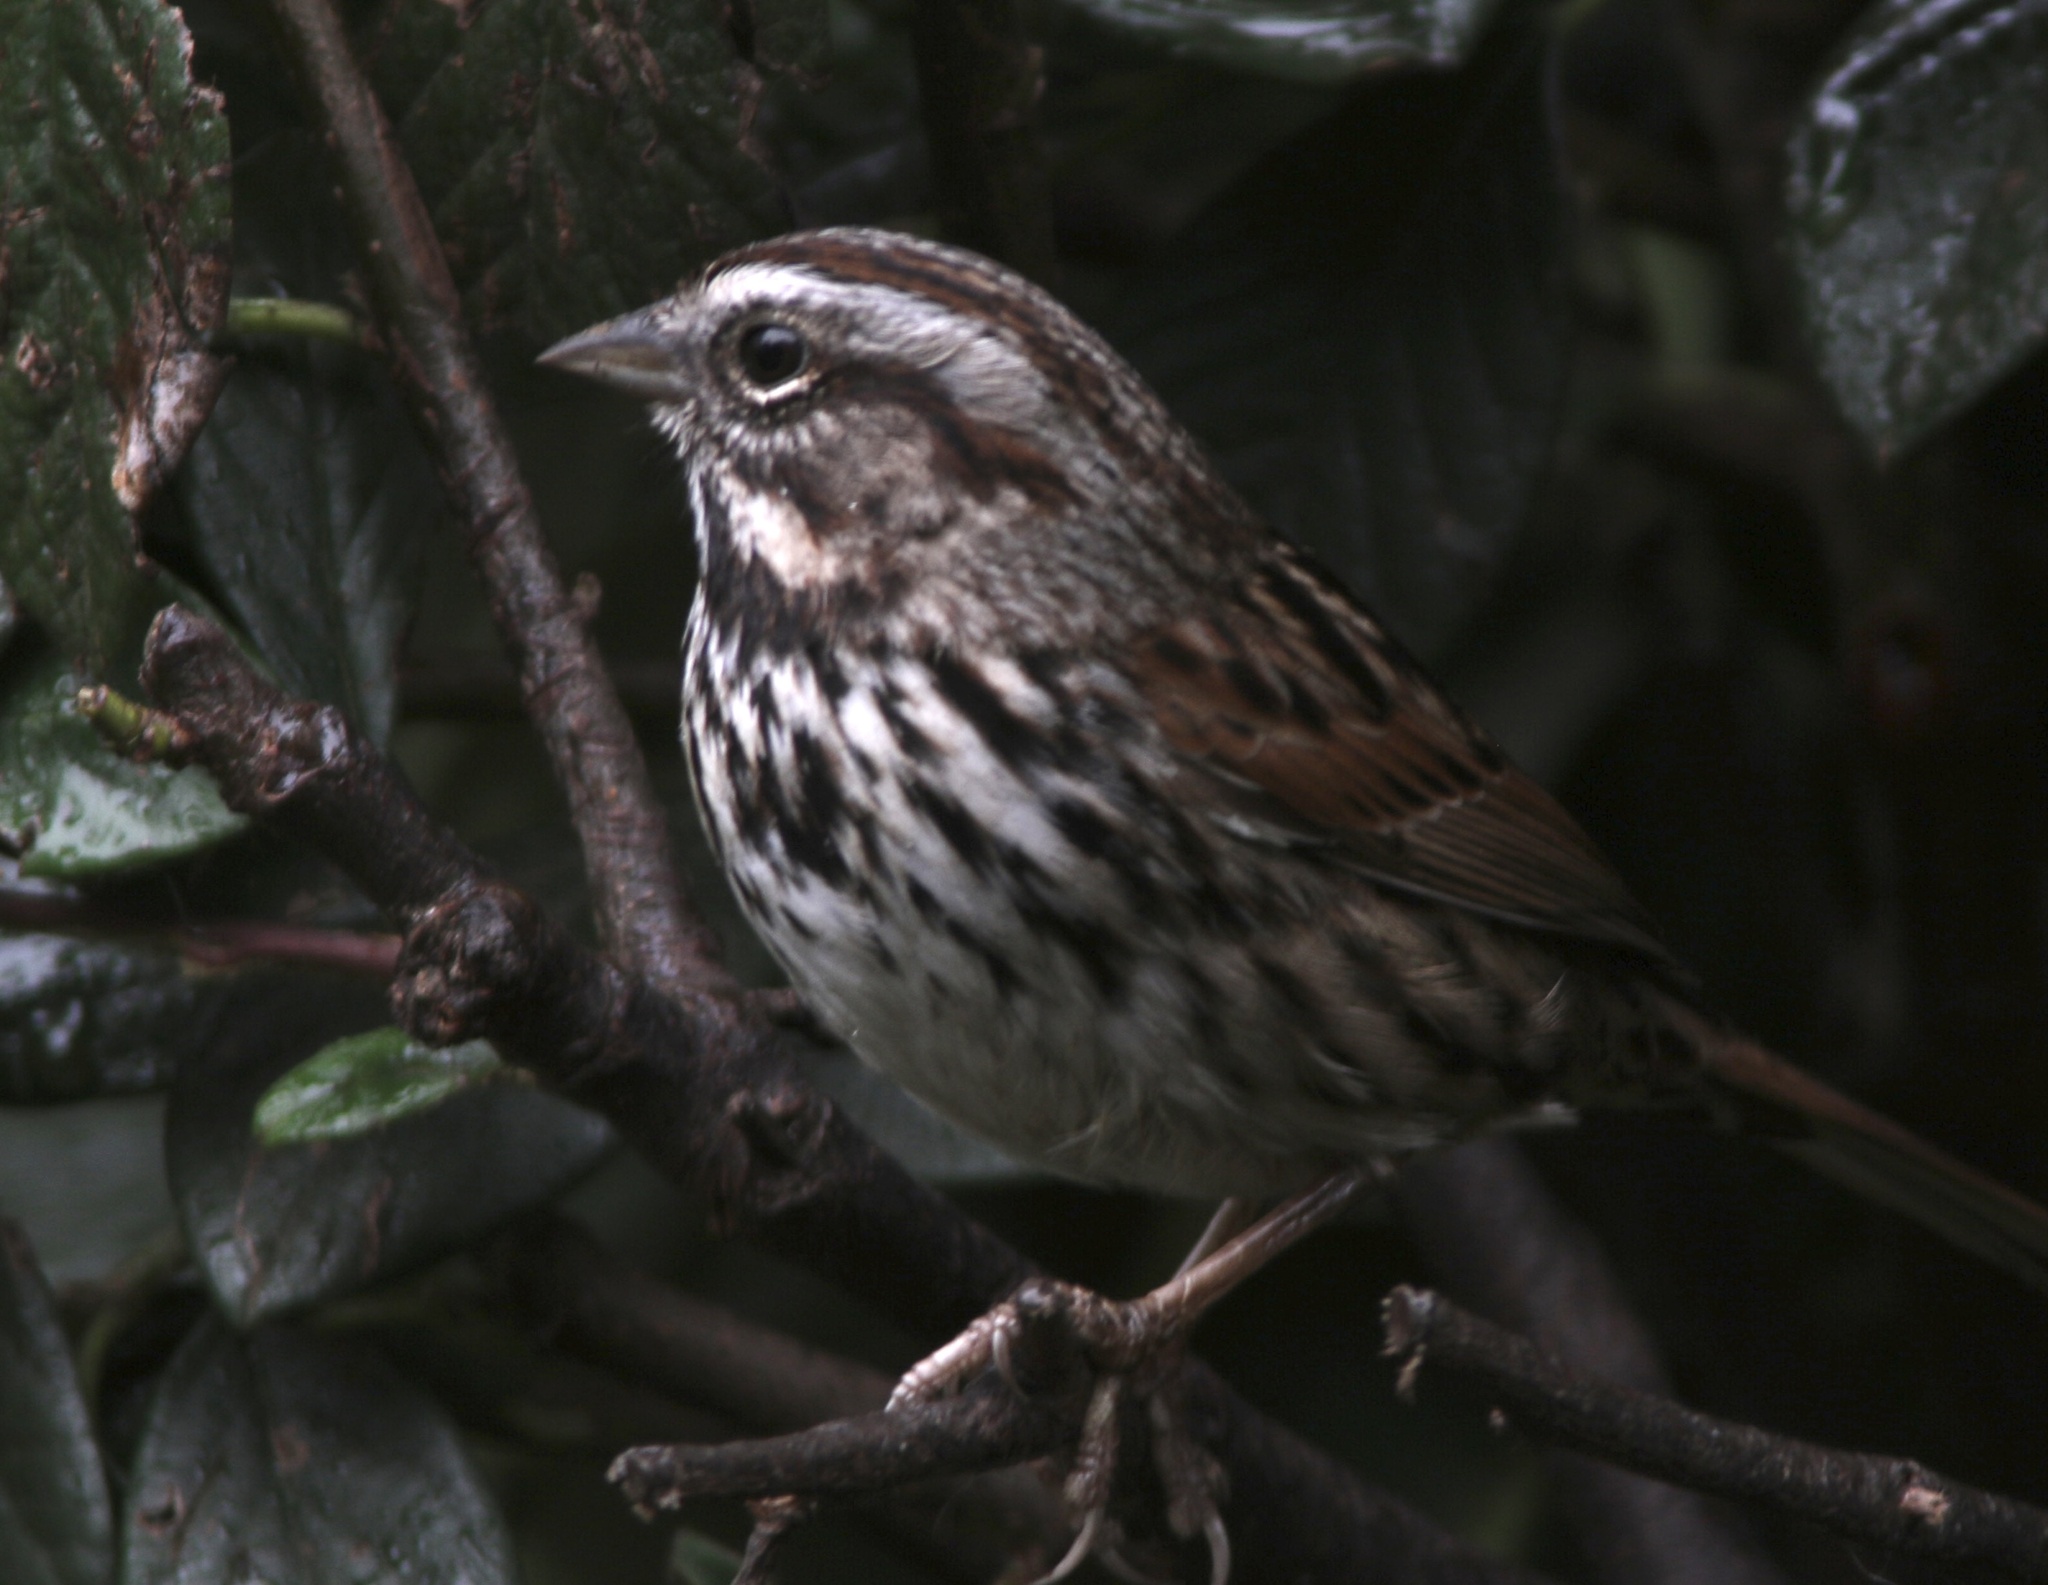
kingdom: Animalia
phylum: Chordata
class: Aves
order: Passeriformes
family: Passerellidae
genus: Melospiza
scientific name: Melospiza melodia
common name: Song sparrow
